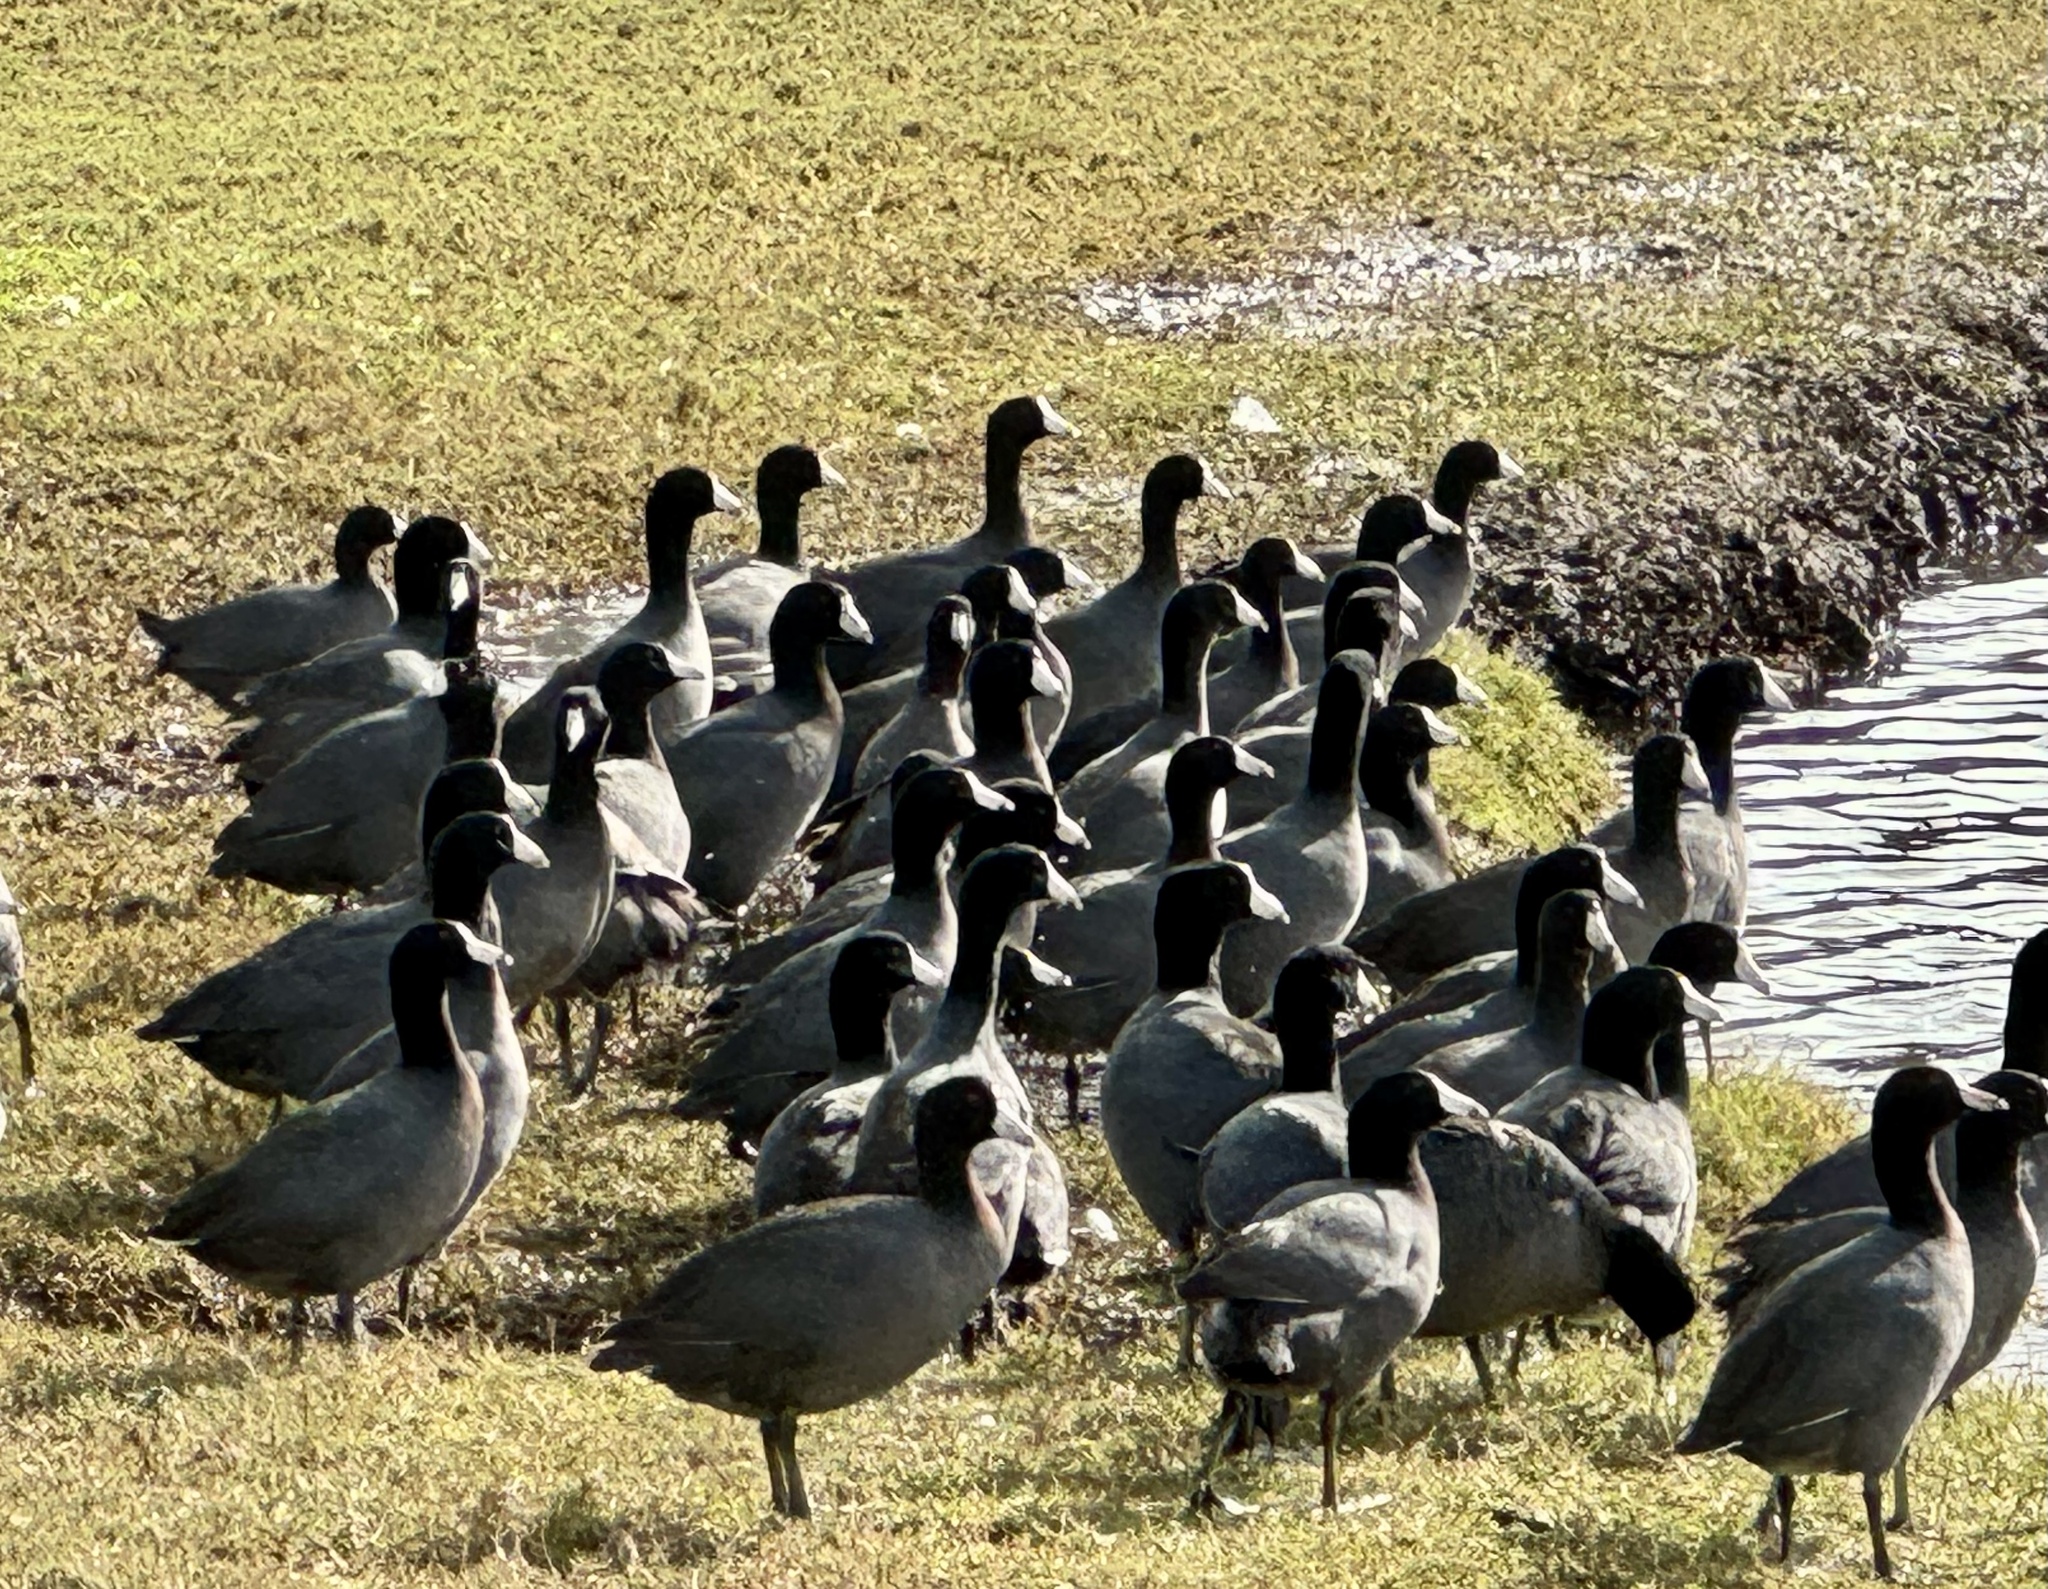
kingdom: Animalia
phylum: Chordata
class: Aves
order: Gruiformes
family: Rallidae
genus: Fulica
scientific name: Fulica americana
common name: American coot
